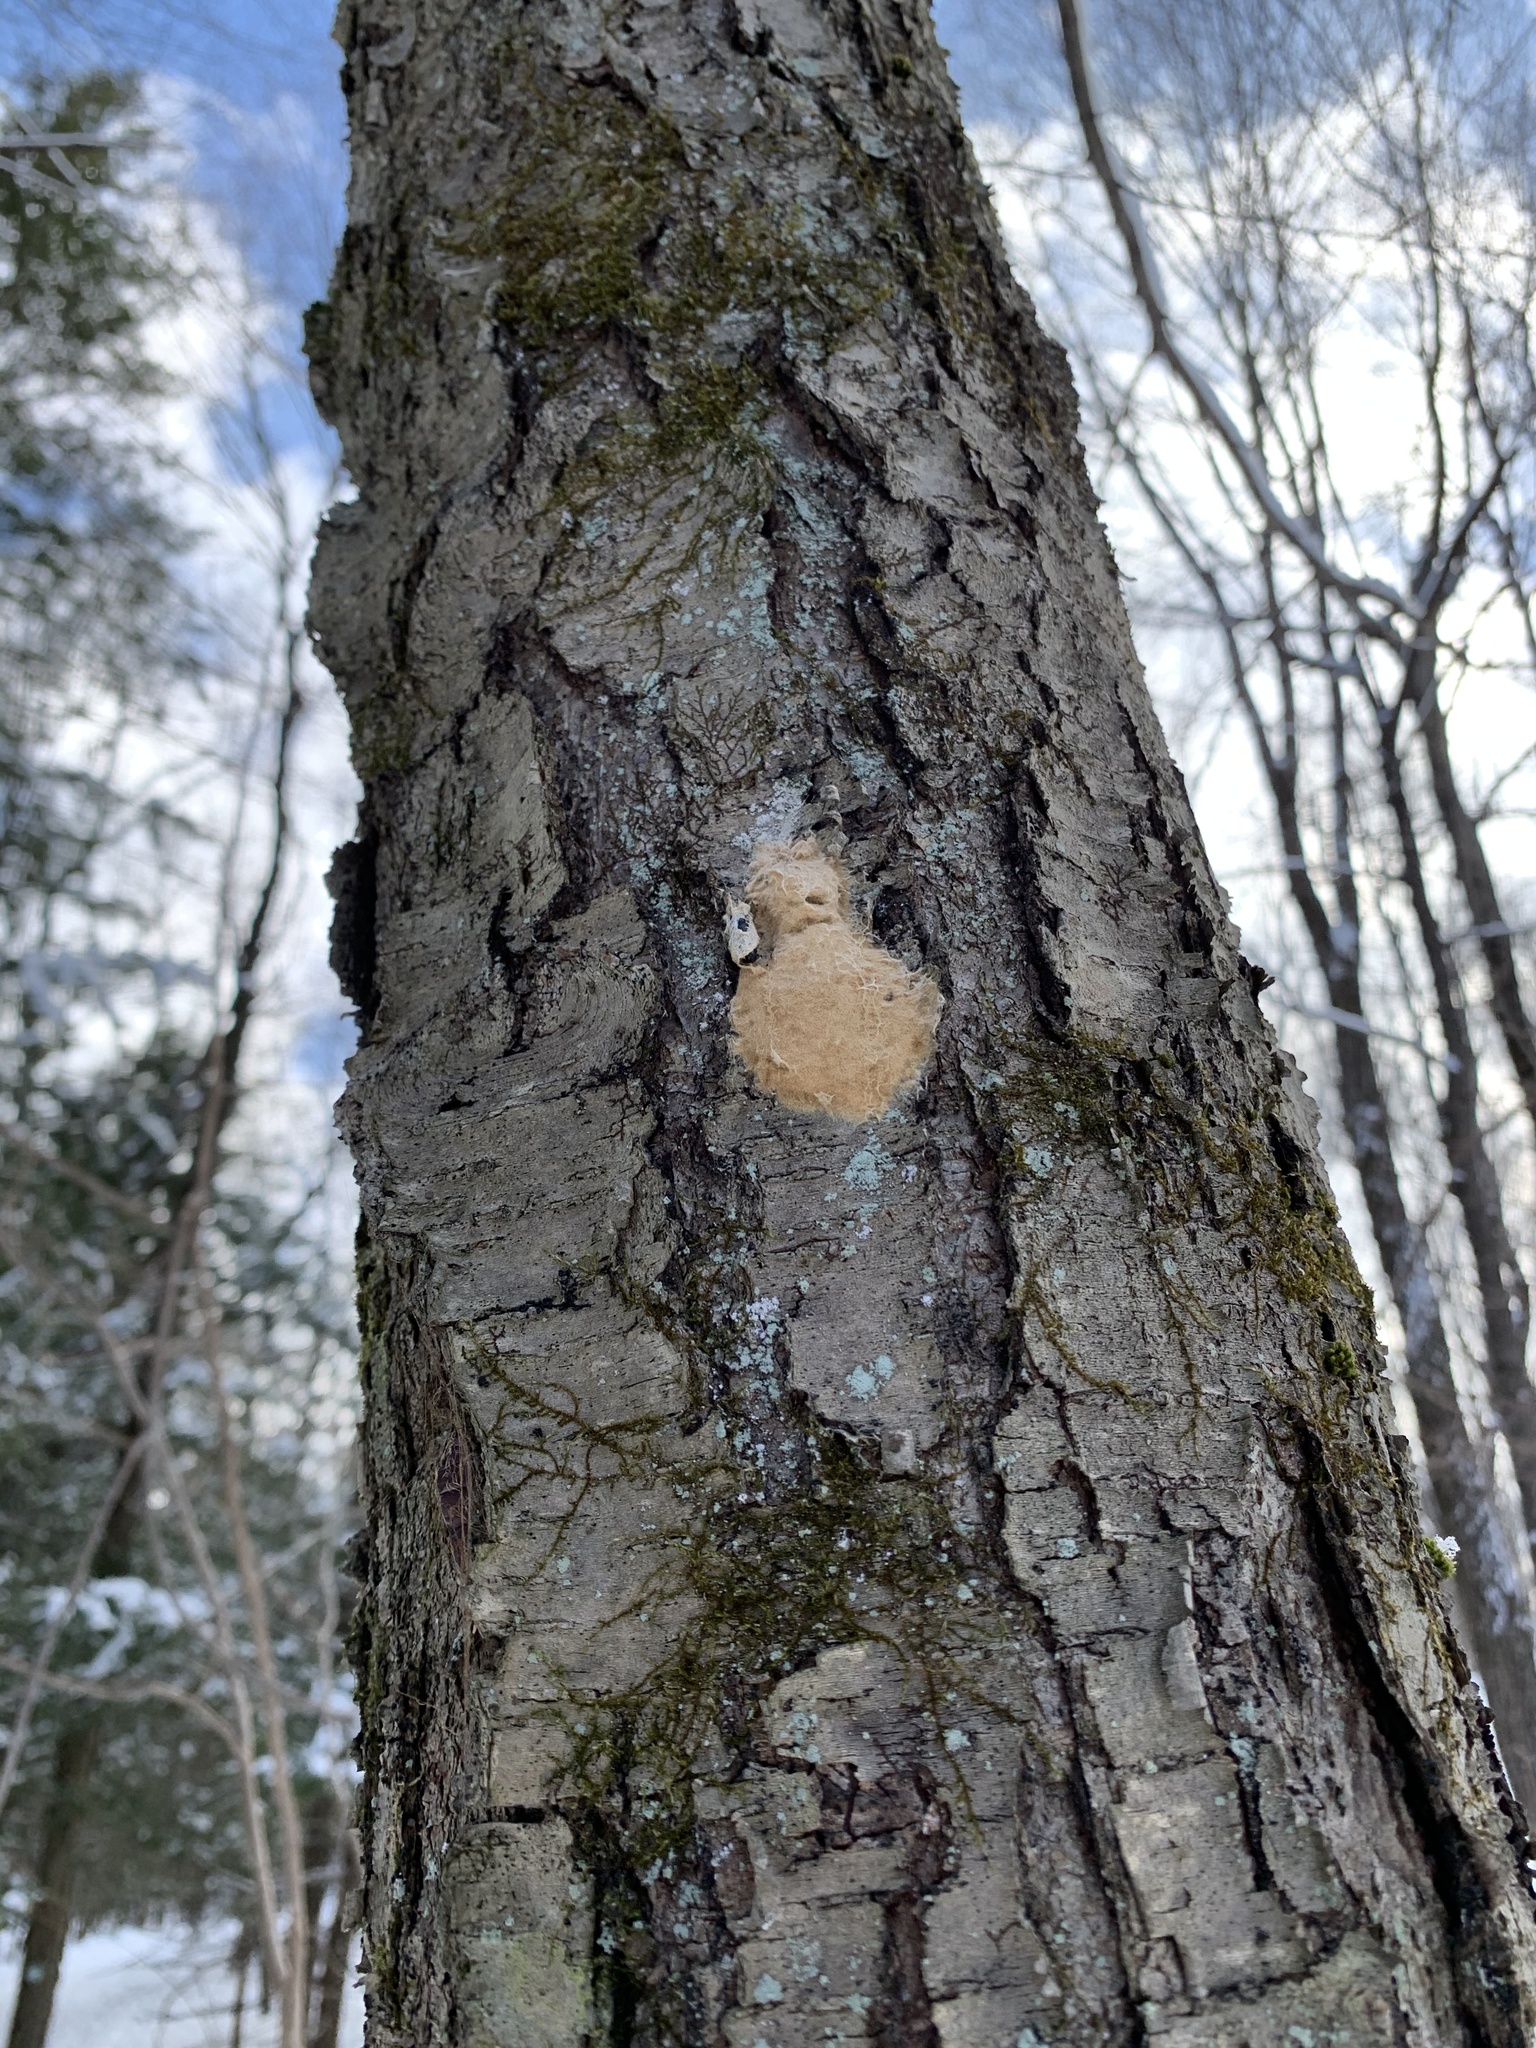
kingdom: Animalia
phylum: Arthropoda
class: Insecta
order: Lepidoptera
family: Erebidae
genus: Lymantria
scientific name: Lymantria dispar
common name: Gypsy moth
